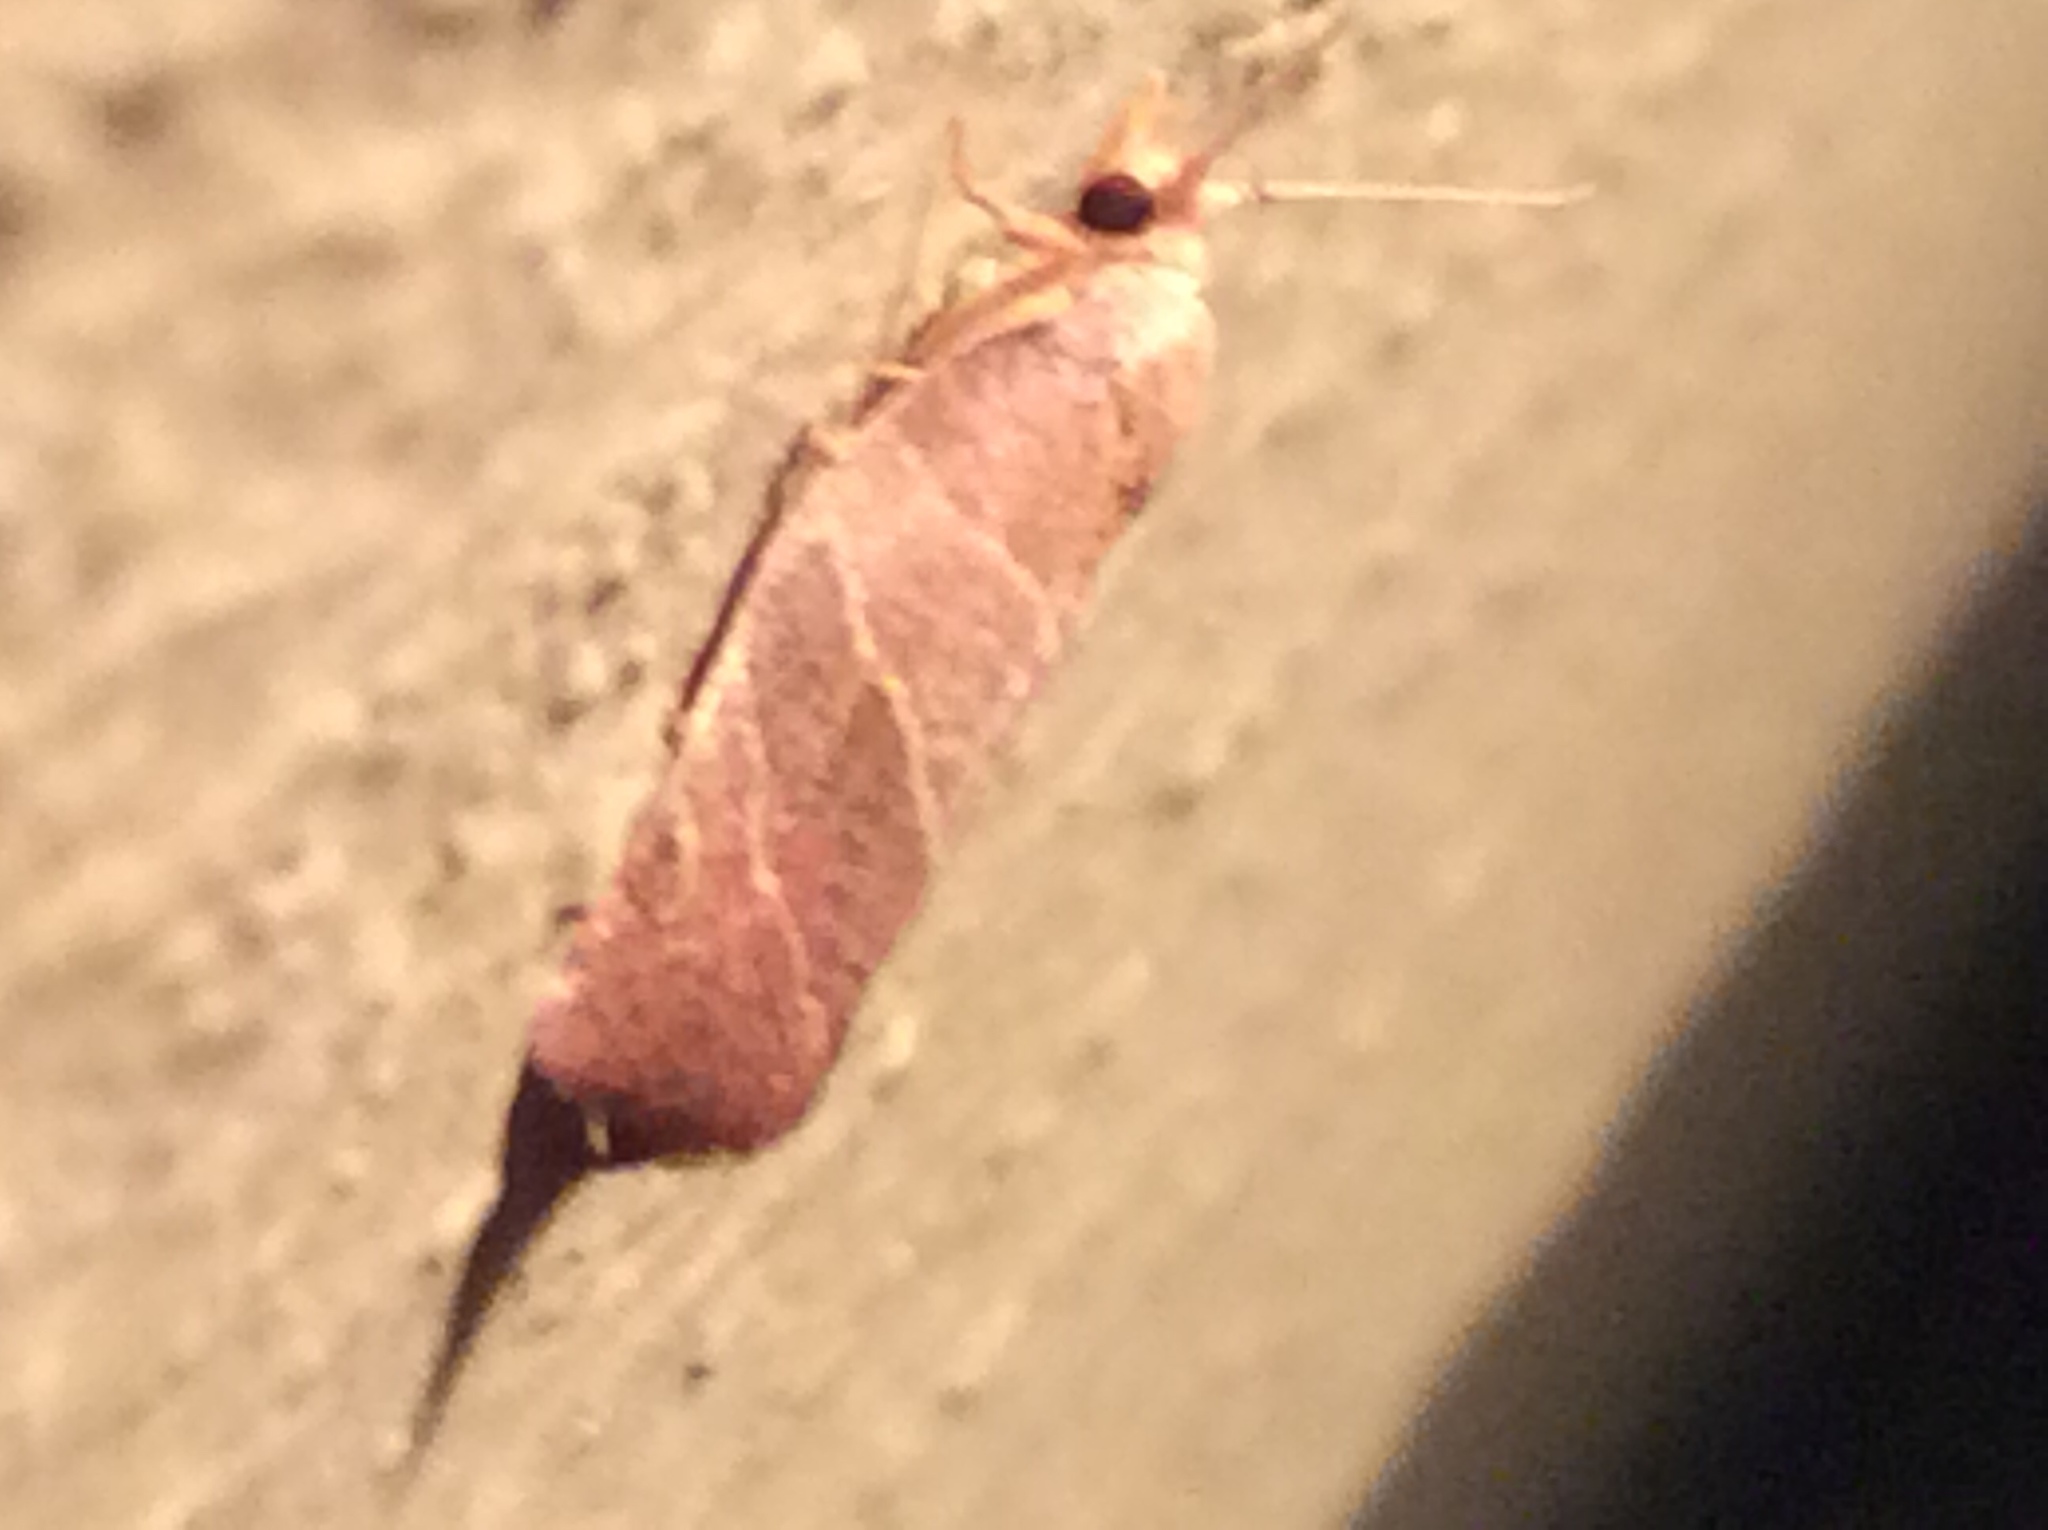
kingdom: Animalia
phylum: Arthropoda
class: Insecta
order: Lepidoptera
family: Tortricidae
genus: Pandemis
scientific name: Pandemis limitata
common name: Three-lined leafroller moth
